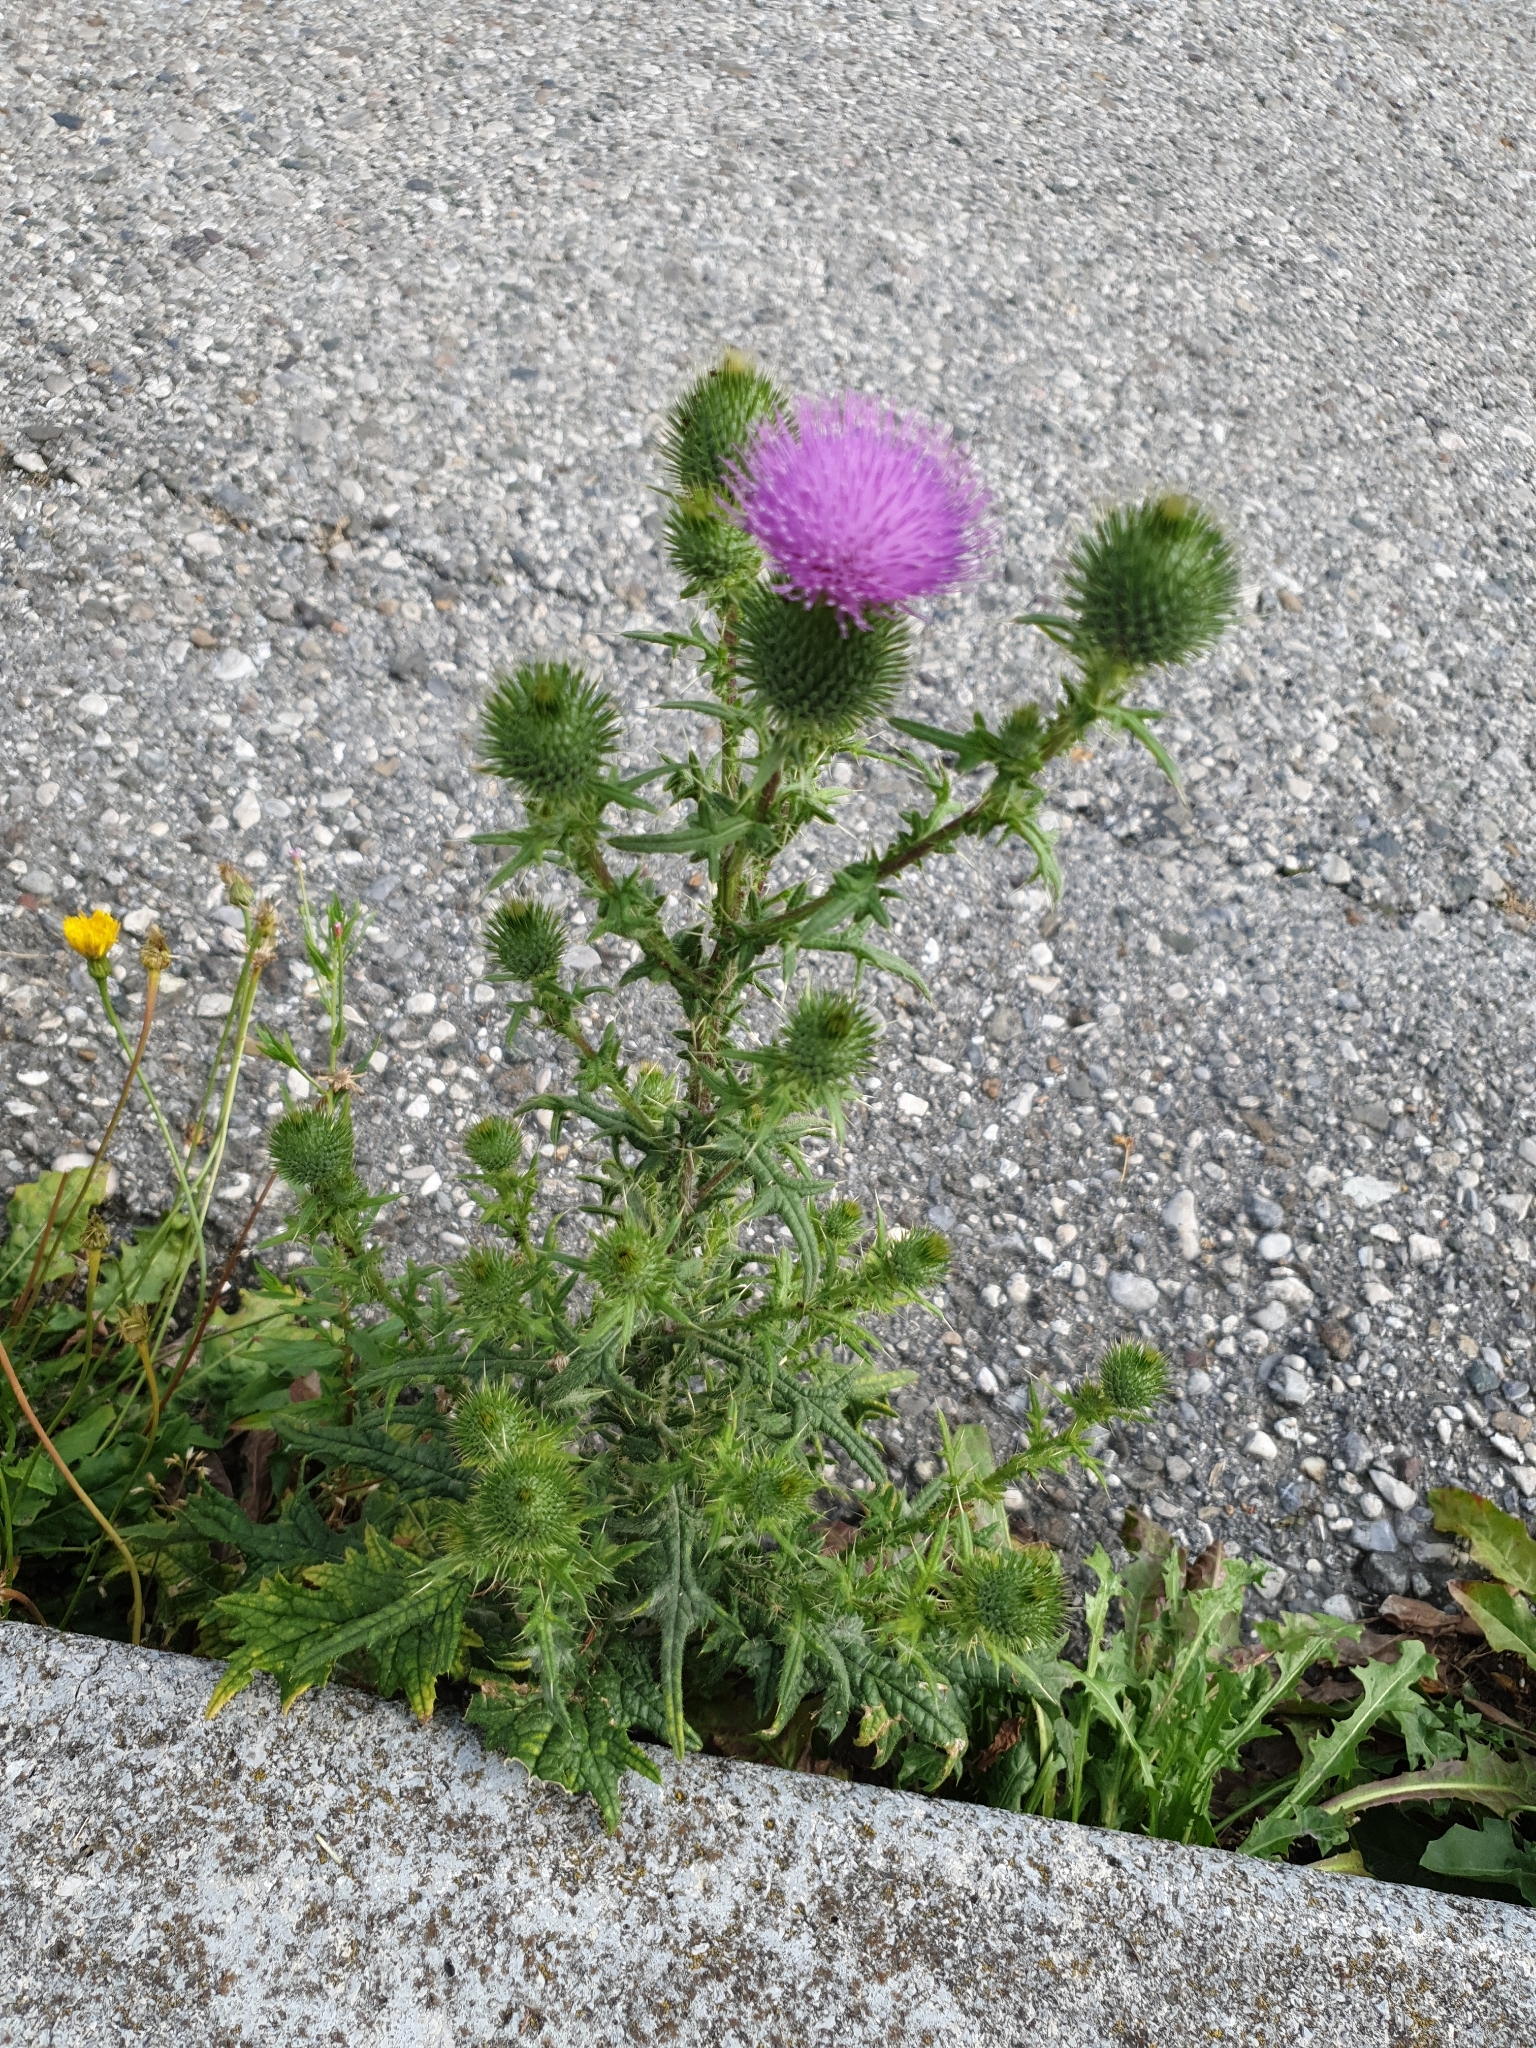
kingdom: Plantae
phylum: Tracheophyta
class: Magnoliopsida
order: Asterales
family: Asteraceae
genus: Cirsium
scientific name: Cirsium vulgare
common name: Bull thistle
